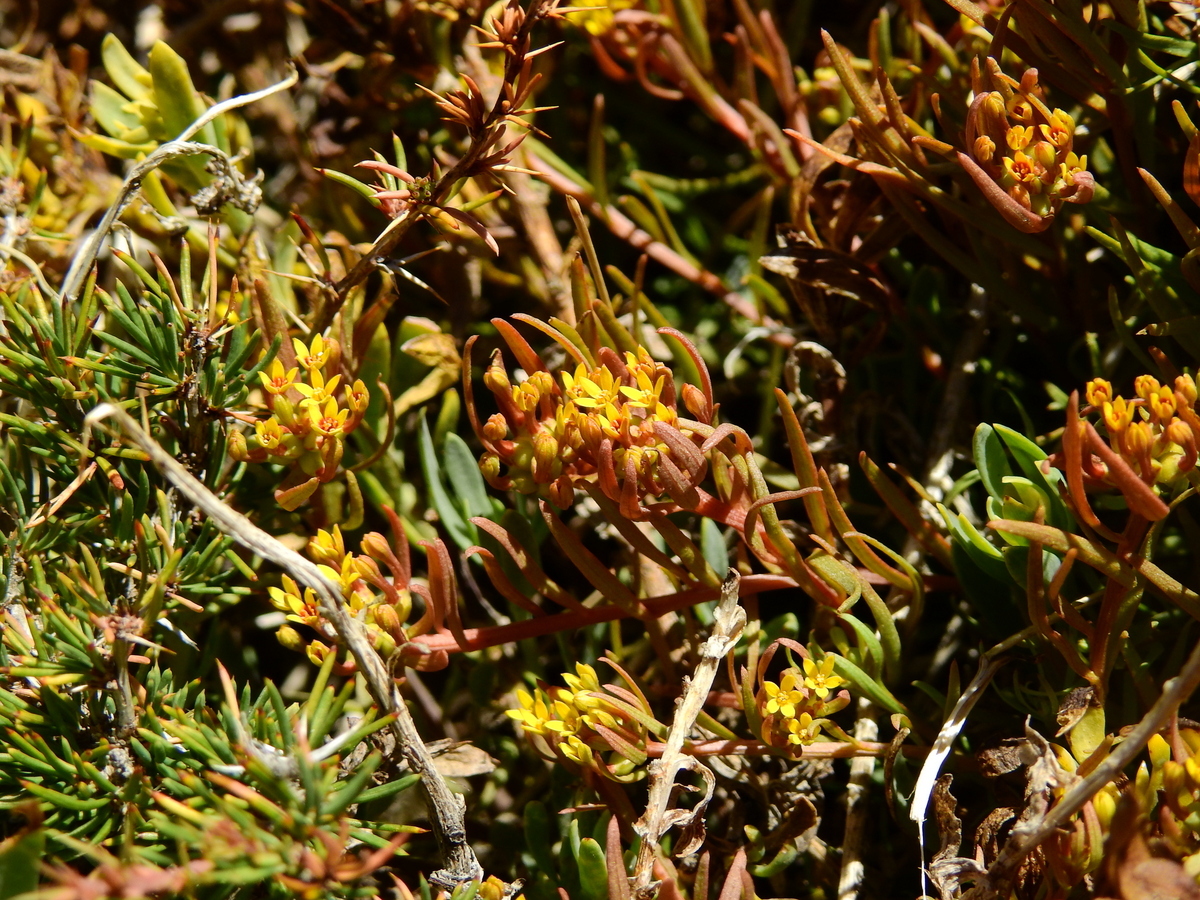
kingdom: Plantae
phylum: Tracheophyta
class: Magnoliopsida
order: Santalales
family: Schoepfiaceae
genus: Quinchamalium
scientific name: Quinchamalium chilense
